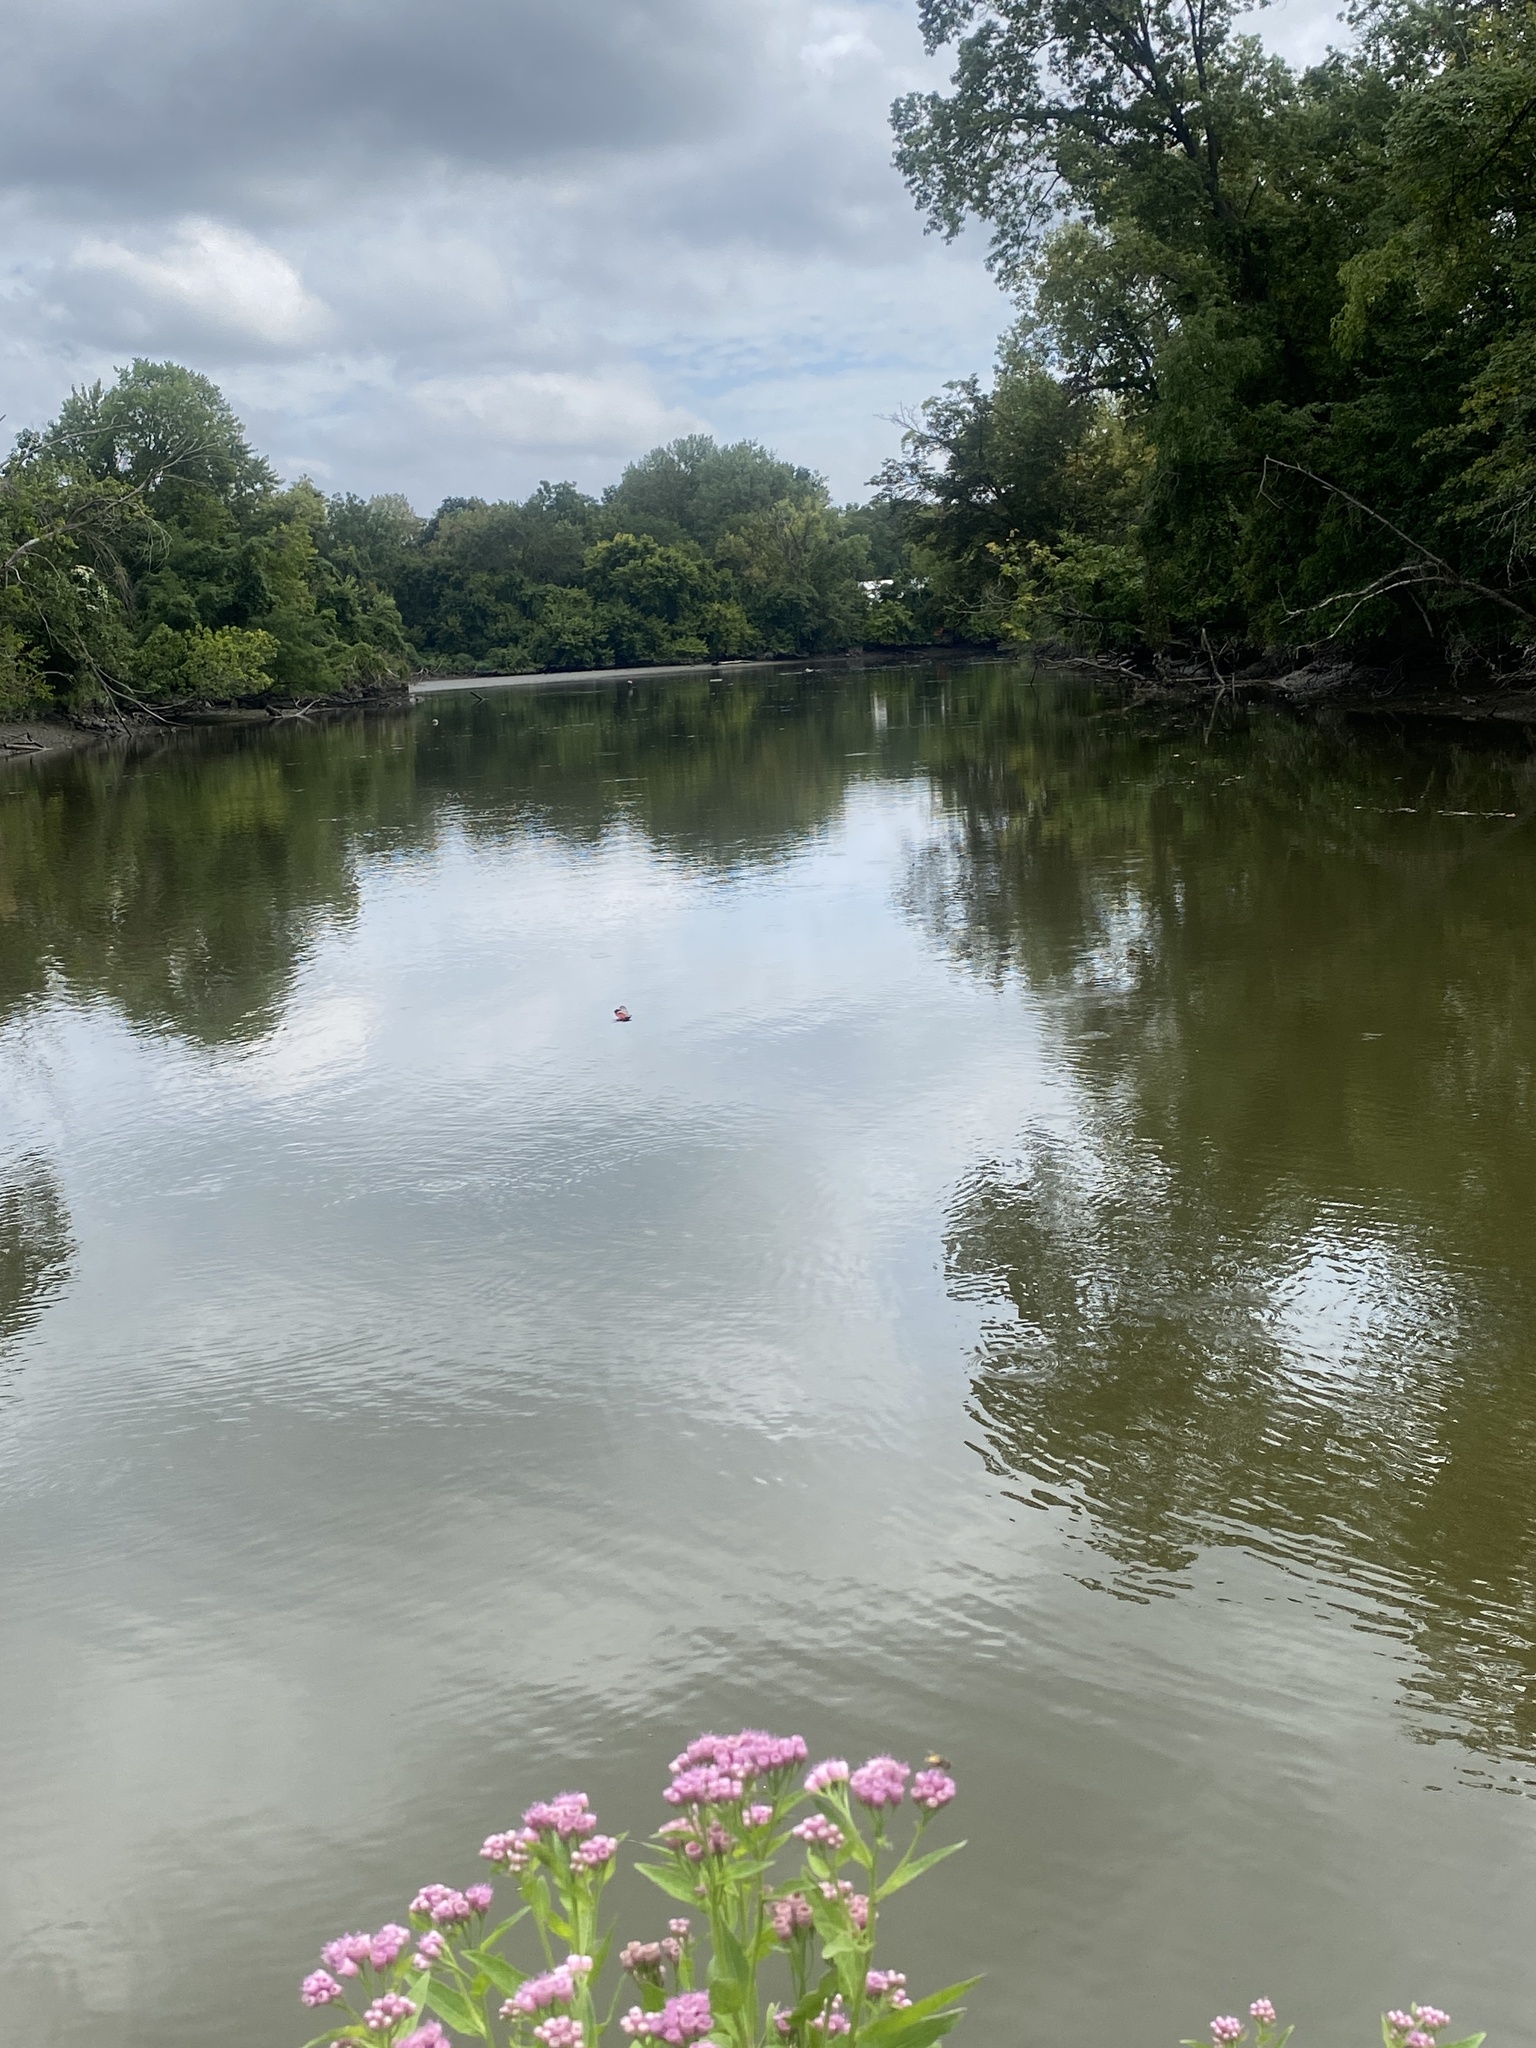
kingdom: Plantae
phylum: Tracheophyta
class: Magnoliopsida
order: Asterales
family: Asteraceae
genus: Pluchea
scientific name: Pluchea odorata
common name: Saltmarsh fleabane
